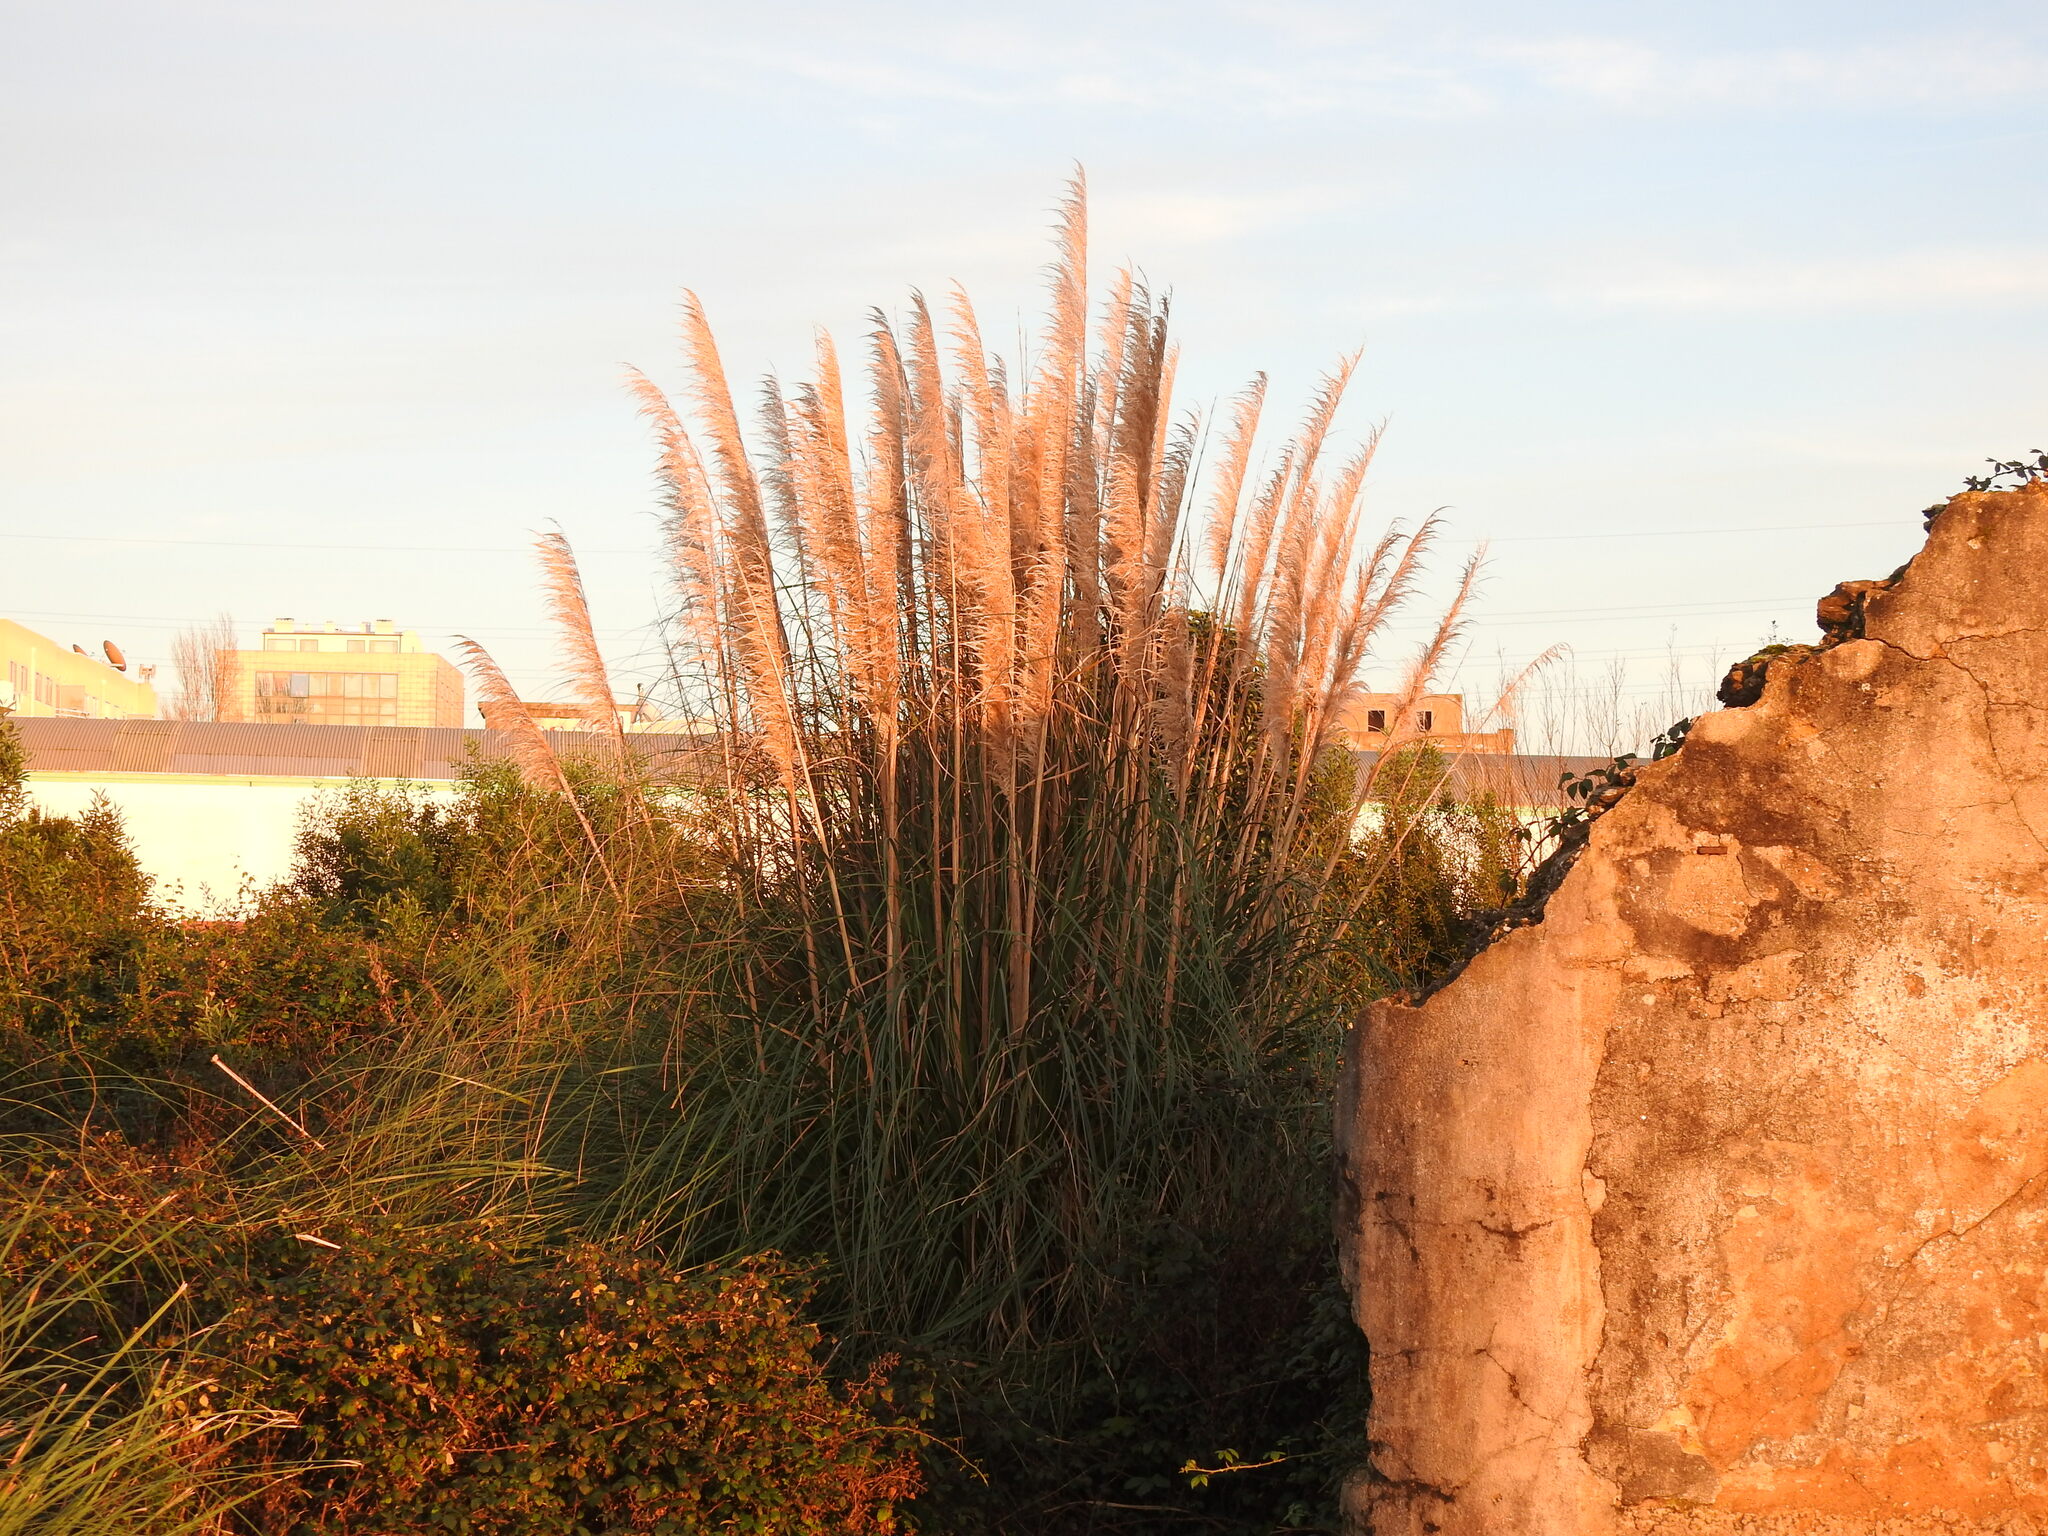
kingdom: Plantae
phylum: Tracheophyta
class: Liliopsida
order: Poales
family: Poaceae
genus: Cortaderia
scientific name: Cortaderia selloana
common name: Uruguayan pampas grass
